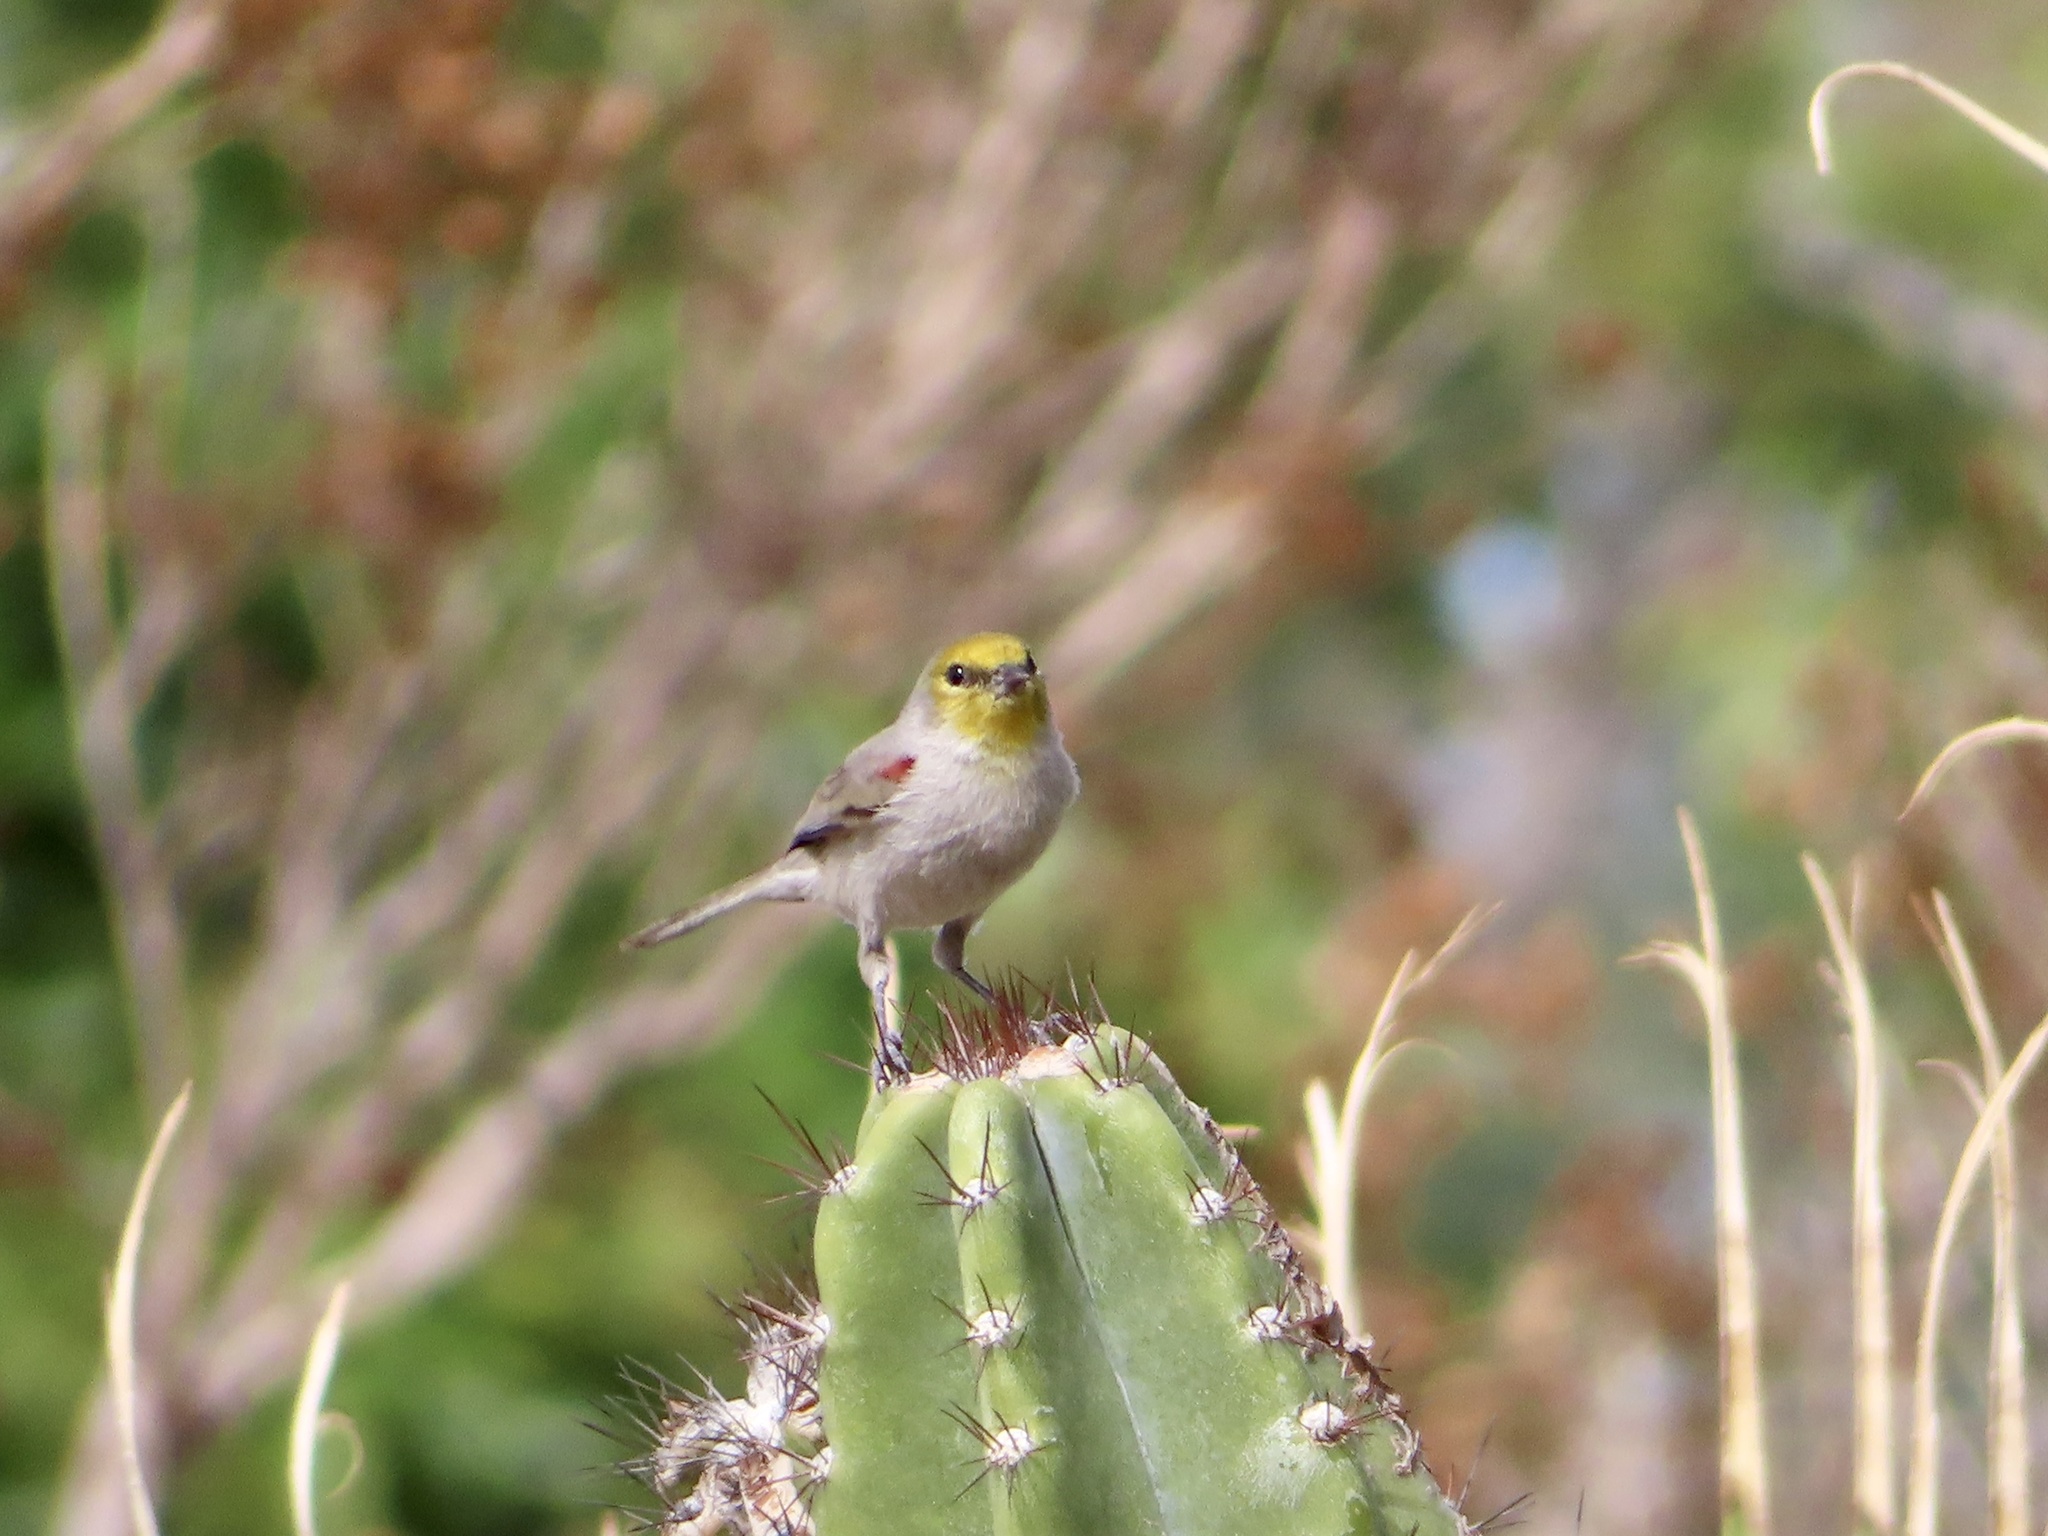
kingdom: Animalia
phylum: Chordata
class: Aves
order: Passeriformes
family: Remizidae
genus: Auriparus
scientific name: Auriparus flaviceps
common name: Verdin
